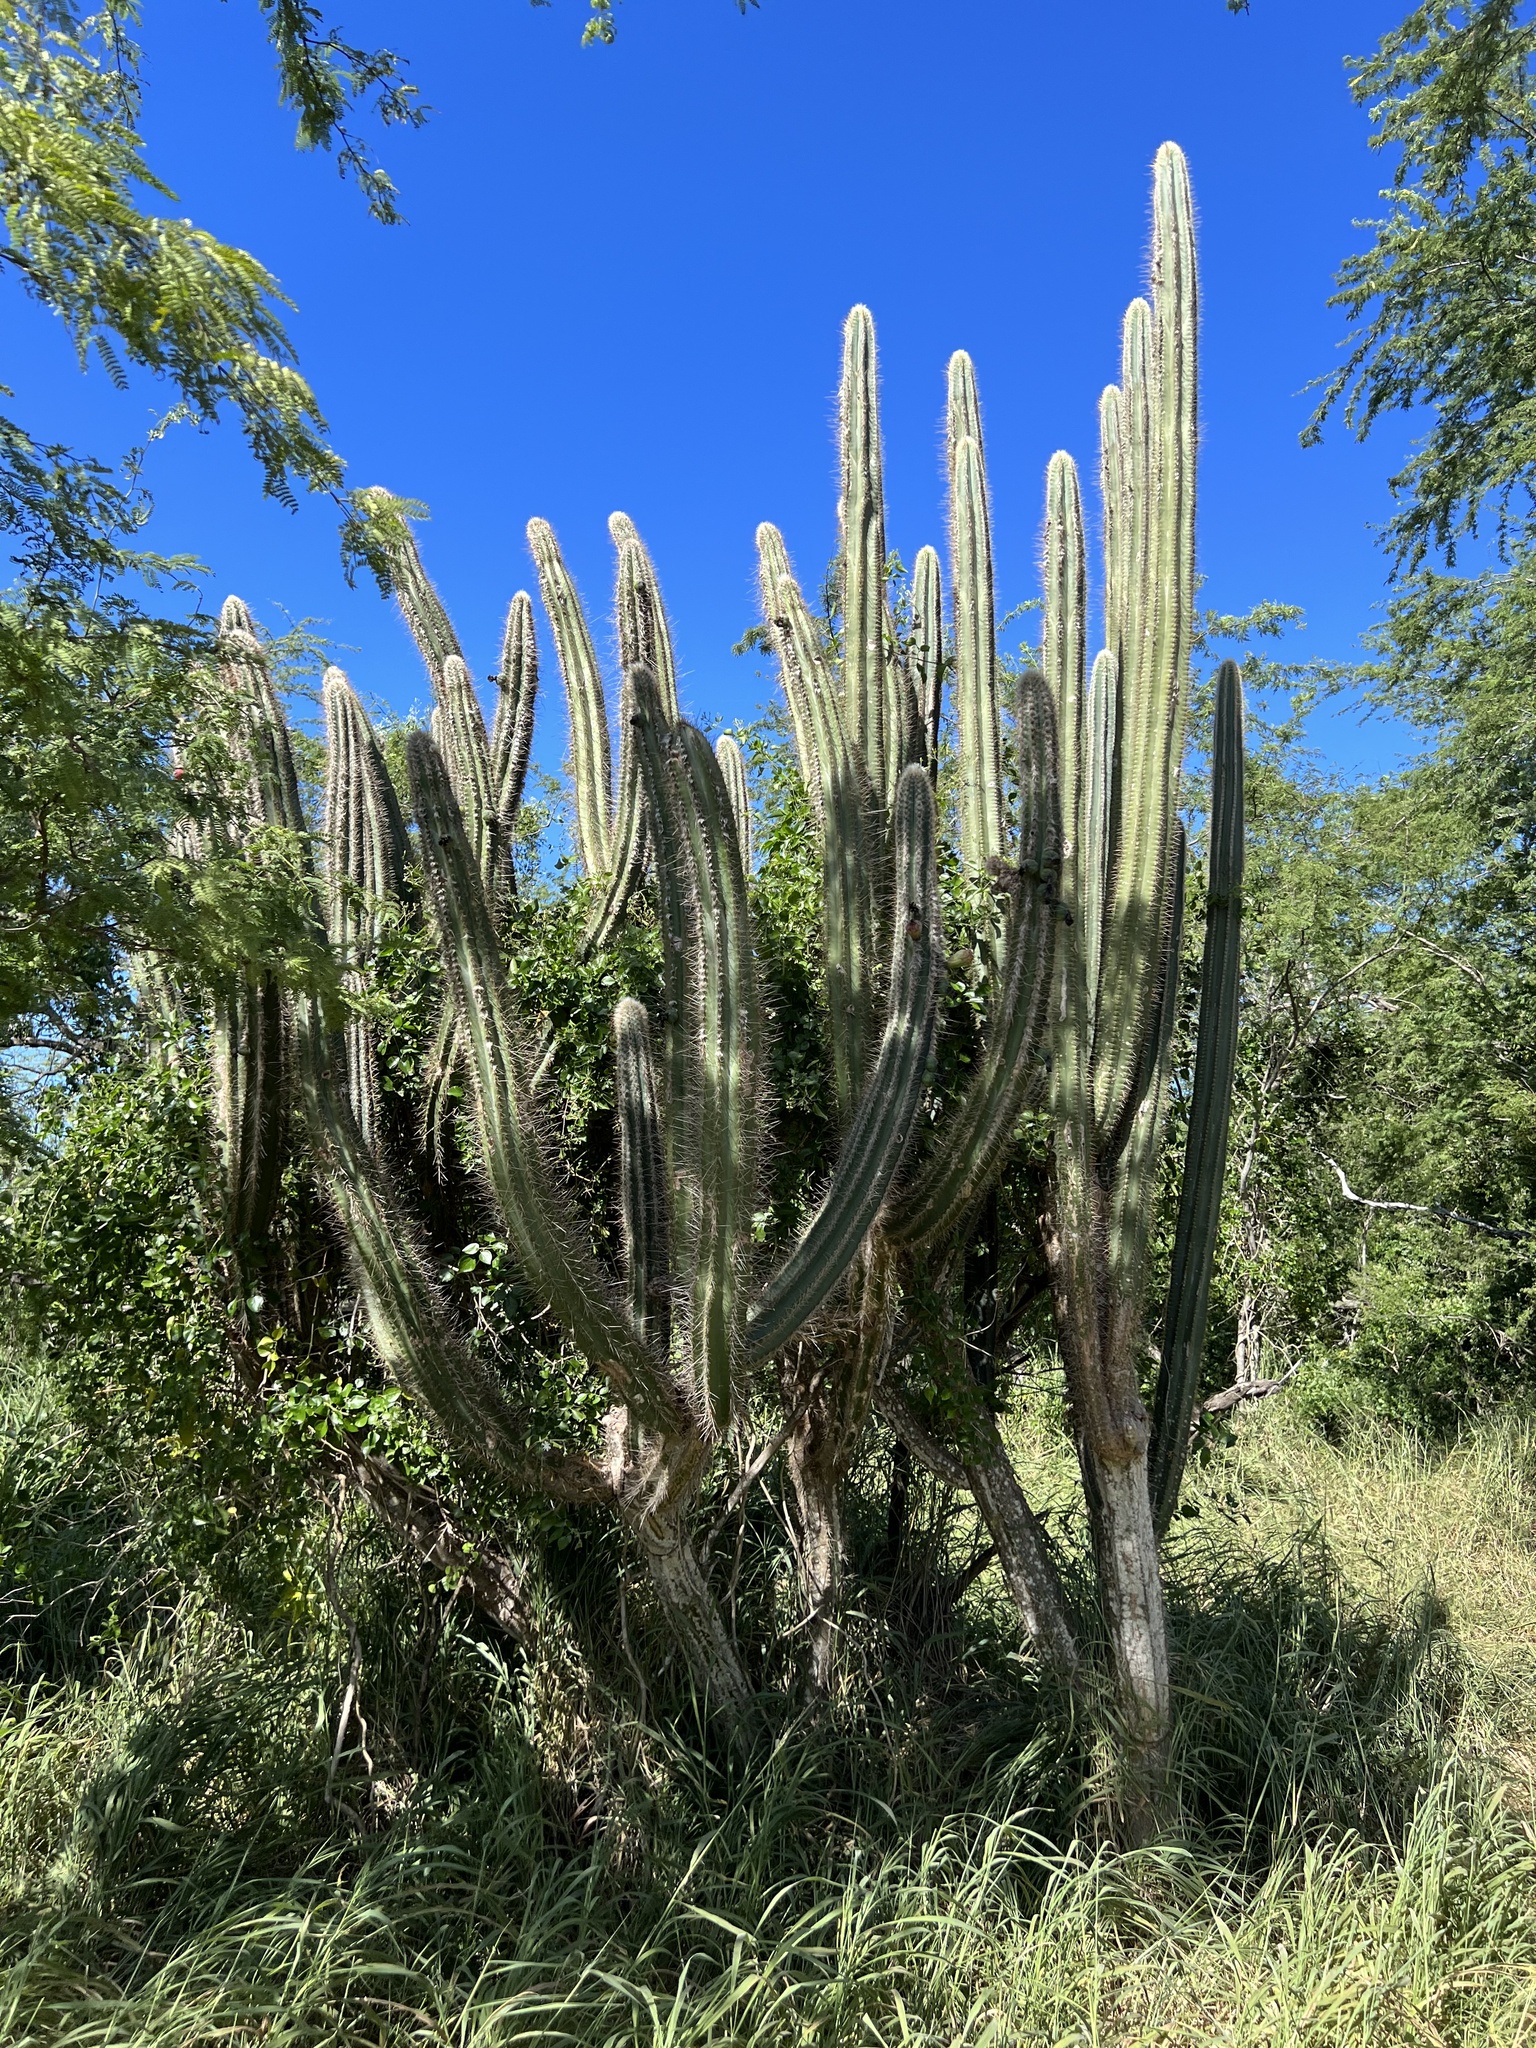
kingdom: Plantae
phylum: Tracheophyta
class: Magnoliopsida
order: Caryophyllales
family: Cactaceae
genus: Pilosocereus
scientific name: Pilosocereus armatus
